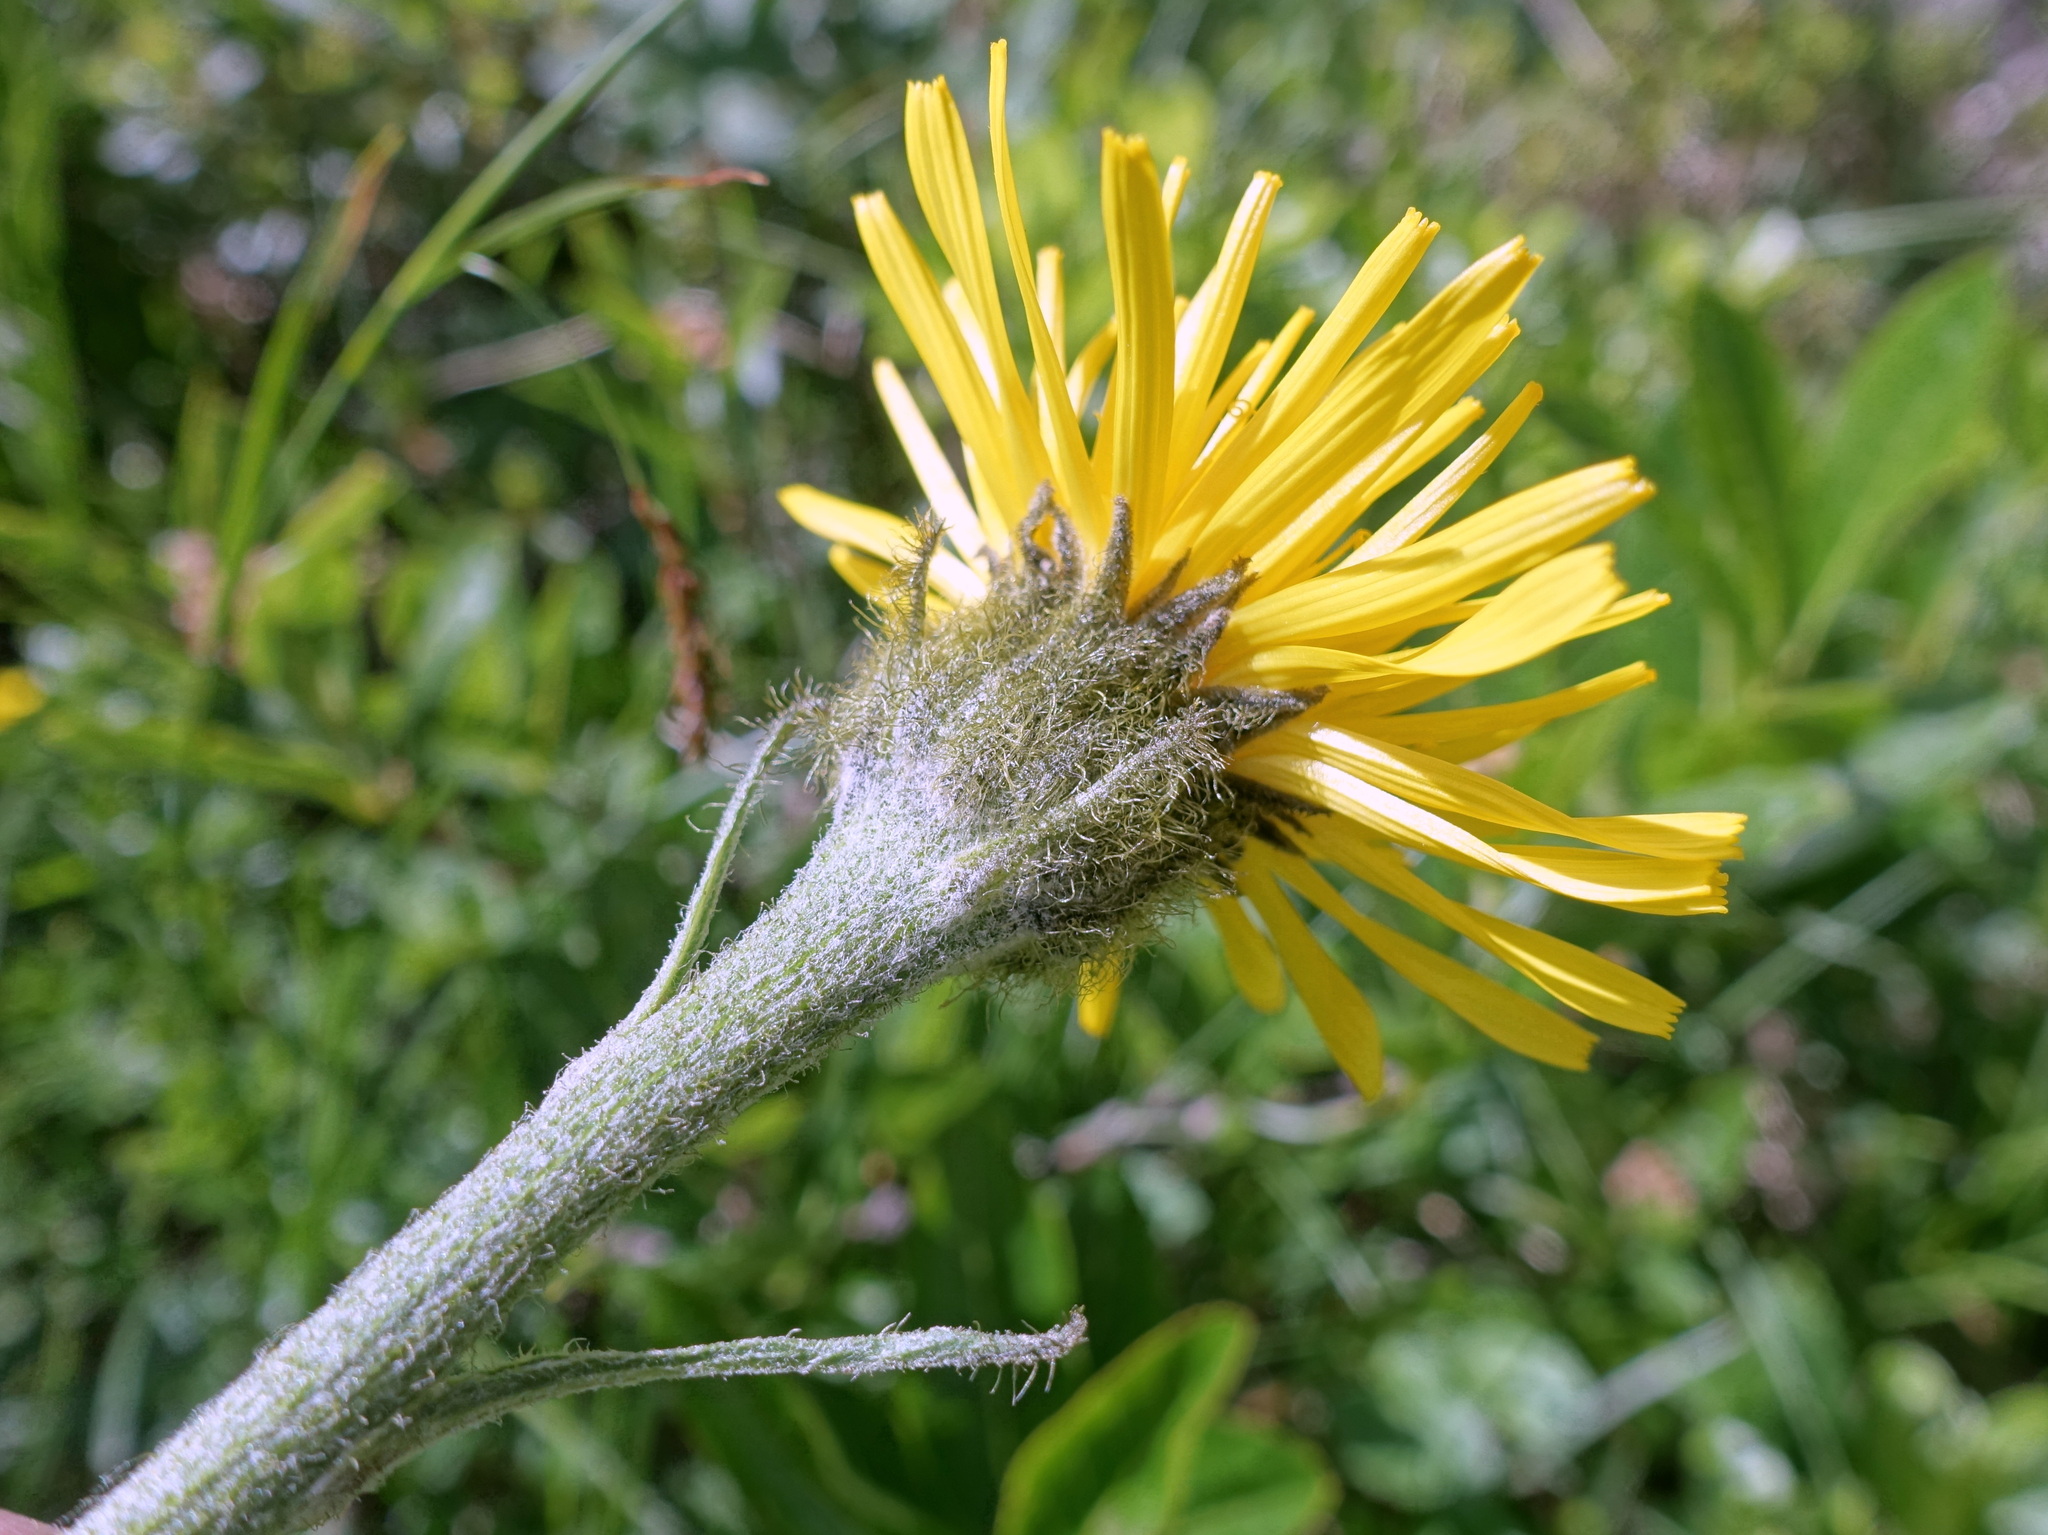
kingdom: Plantae
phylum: Tracheophyta
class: Magnoliopsida
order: Asterales
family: Asteraceae
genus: Crepis
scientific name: Crepis pontana
